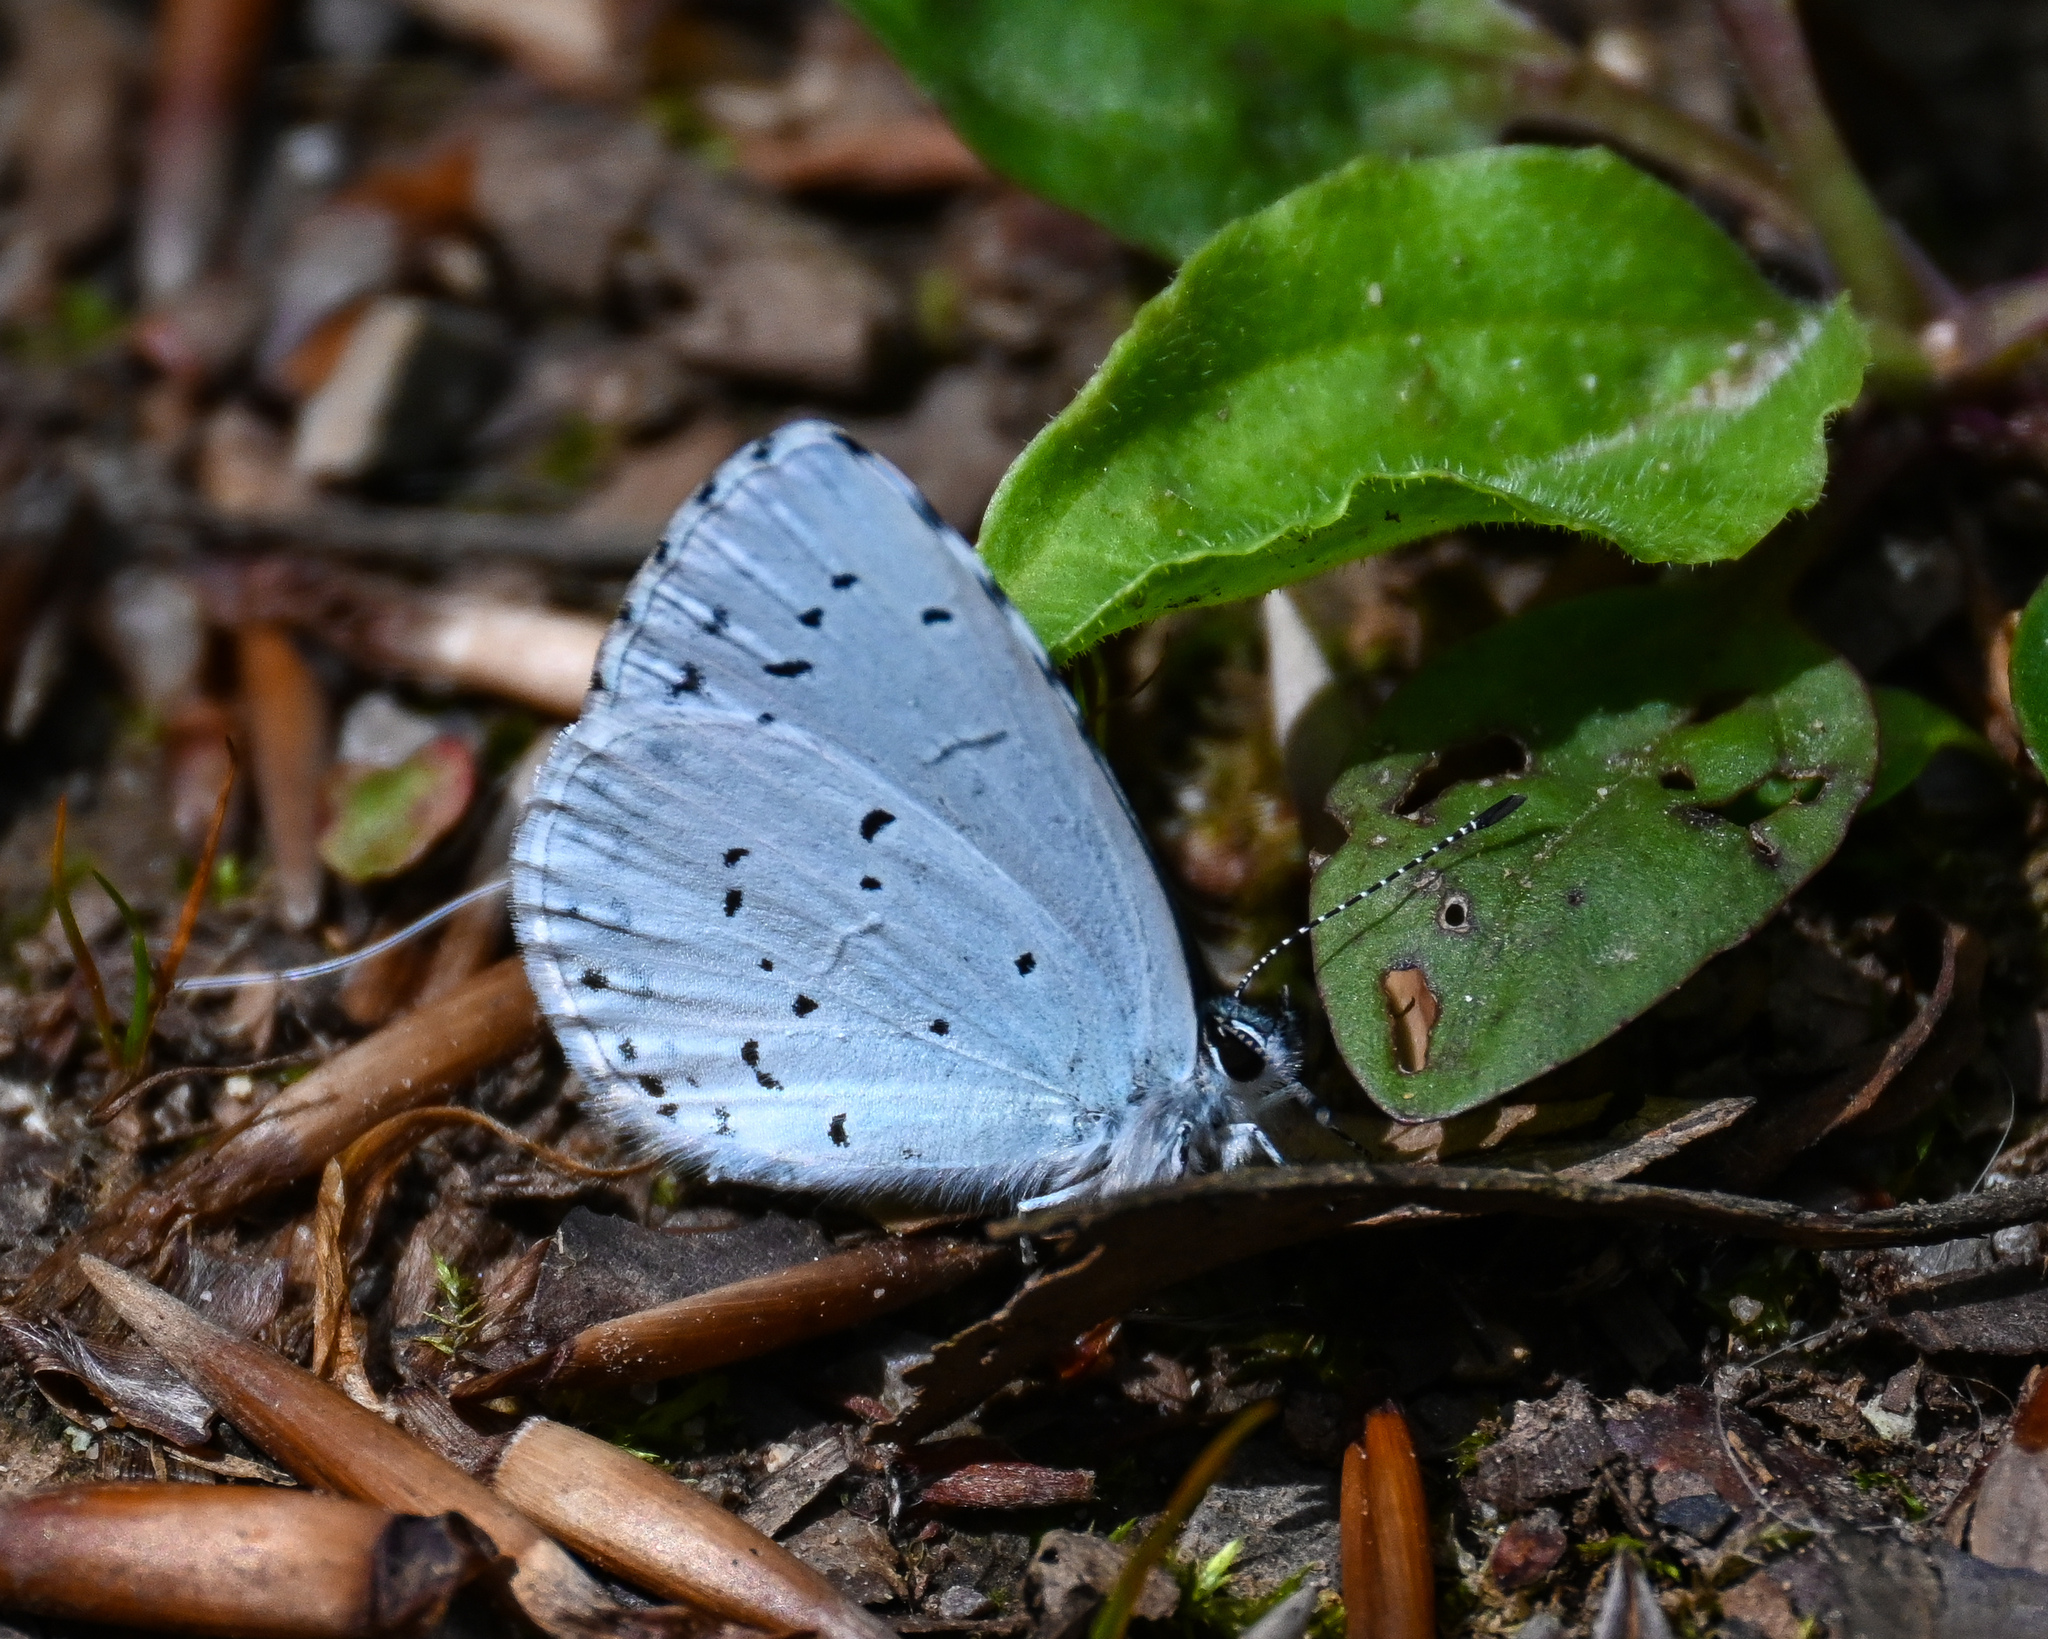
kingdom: Animalia
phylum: Arthropoda
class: Insecta
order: Lepidoptera
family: Lycaenidae
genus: Celastrina
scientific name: Celastrina argiolus
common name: Holly blue
